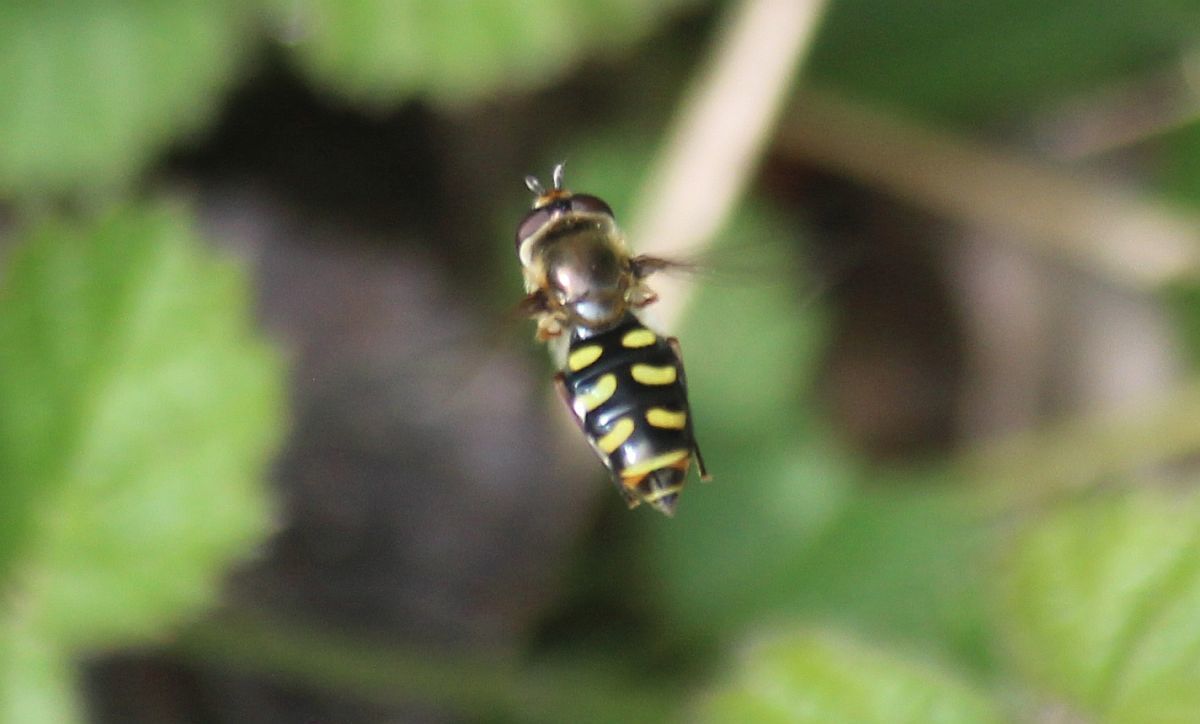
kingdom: Animalia
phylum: Arthropoda
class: Insecta
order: Diptera
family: Syrphidae
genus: Eupeodes
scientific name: Eupeodes
